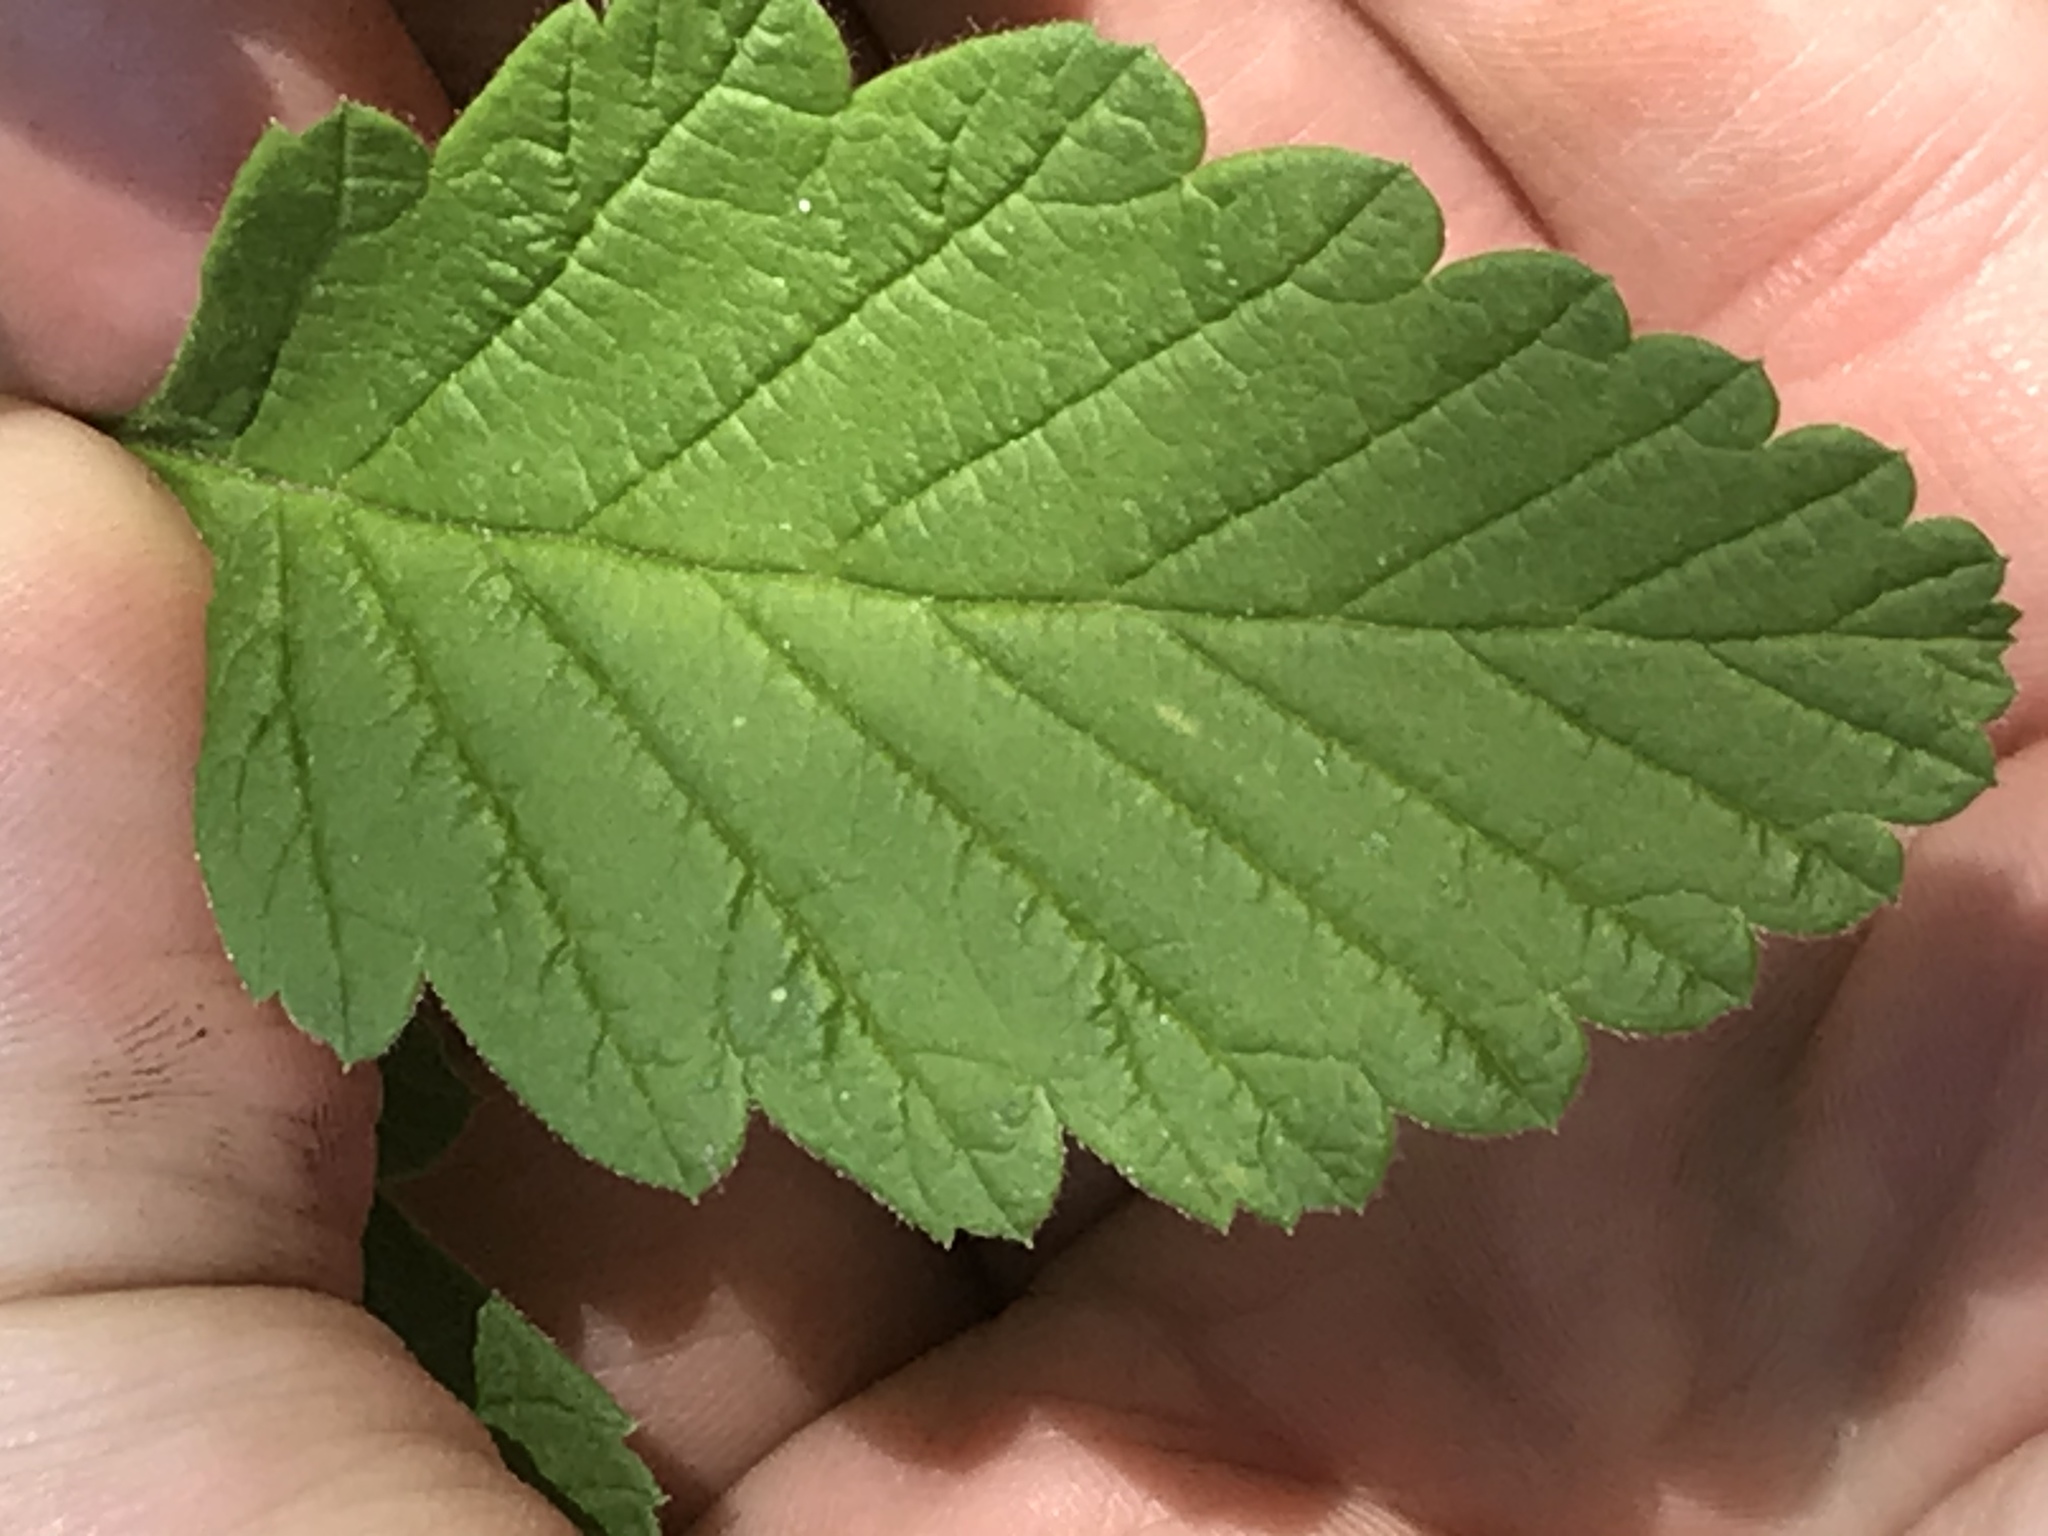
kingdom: Plantae
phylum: Tracheophyta
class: Magnoliopsida
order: Rosales
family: Rosaceae
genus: Holodiscus
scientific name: Holodiscus discolor
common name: Oceanspray
